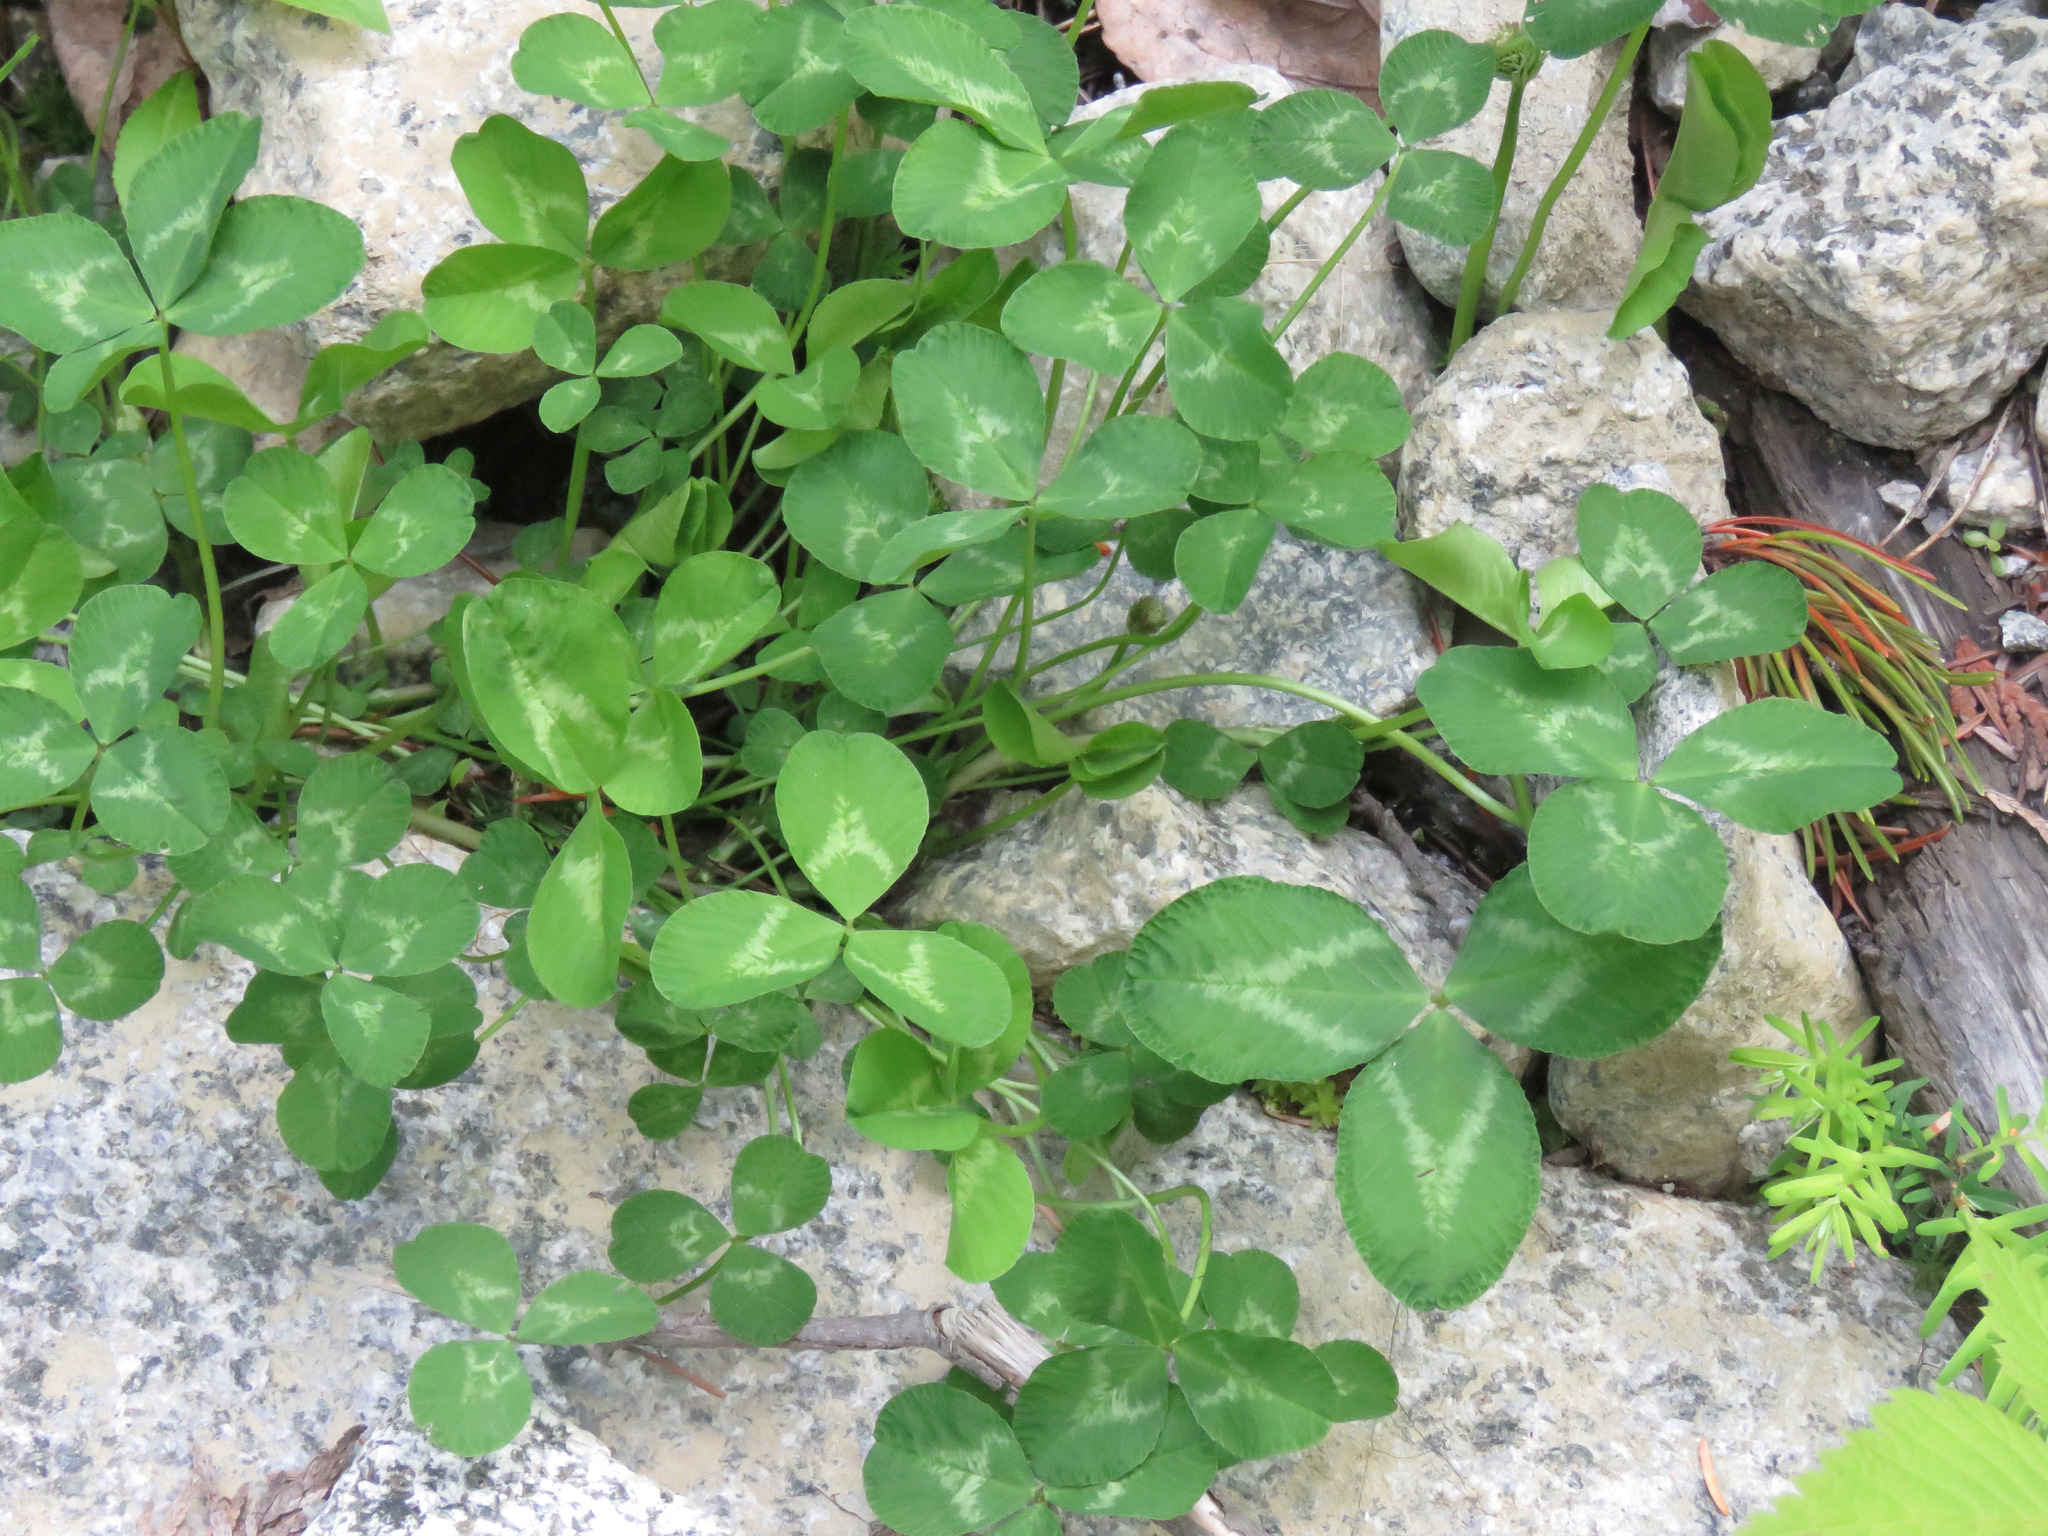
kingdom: Plantae
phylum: Tracheophyta
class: Magnoliopsida
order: Fabales
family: Fabaceae
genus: Trifolium
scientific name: Trifolium repens
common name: White clover
